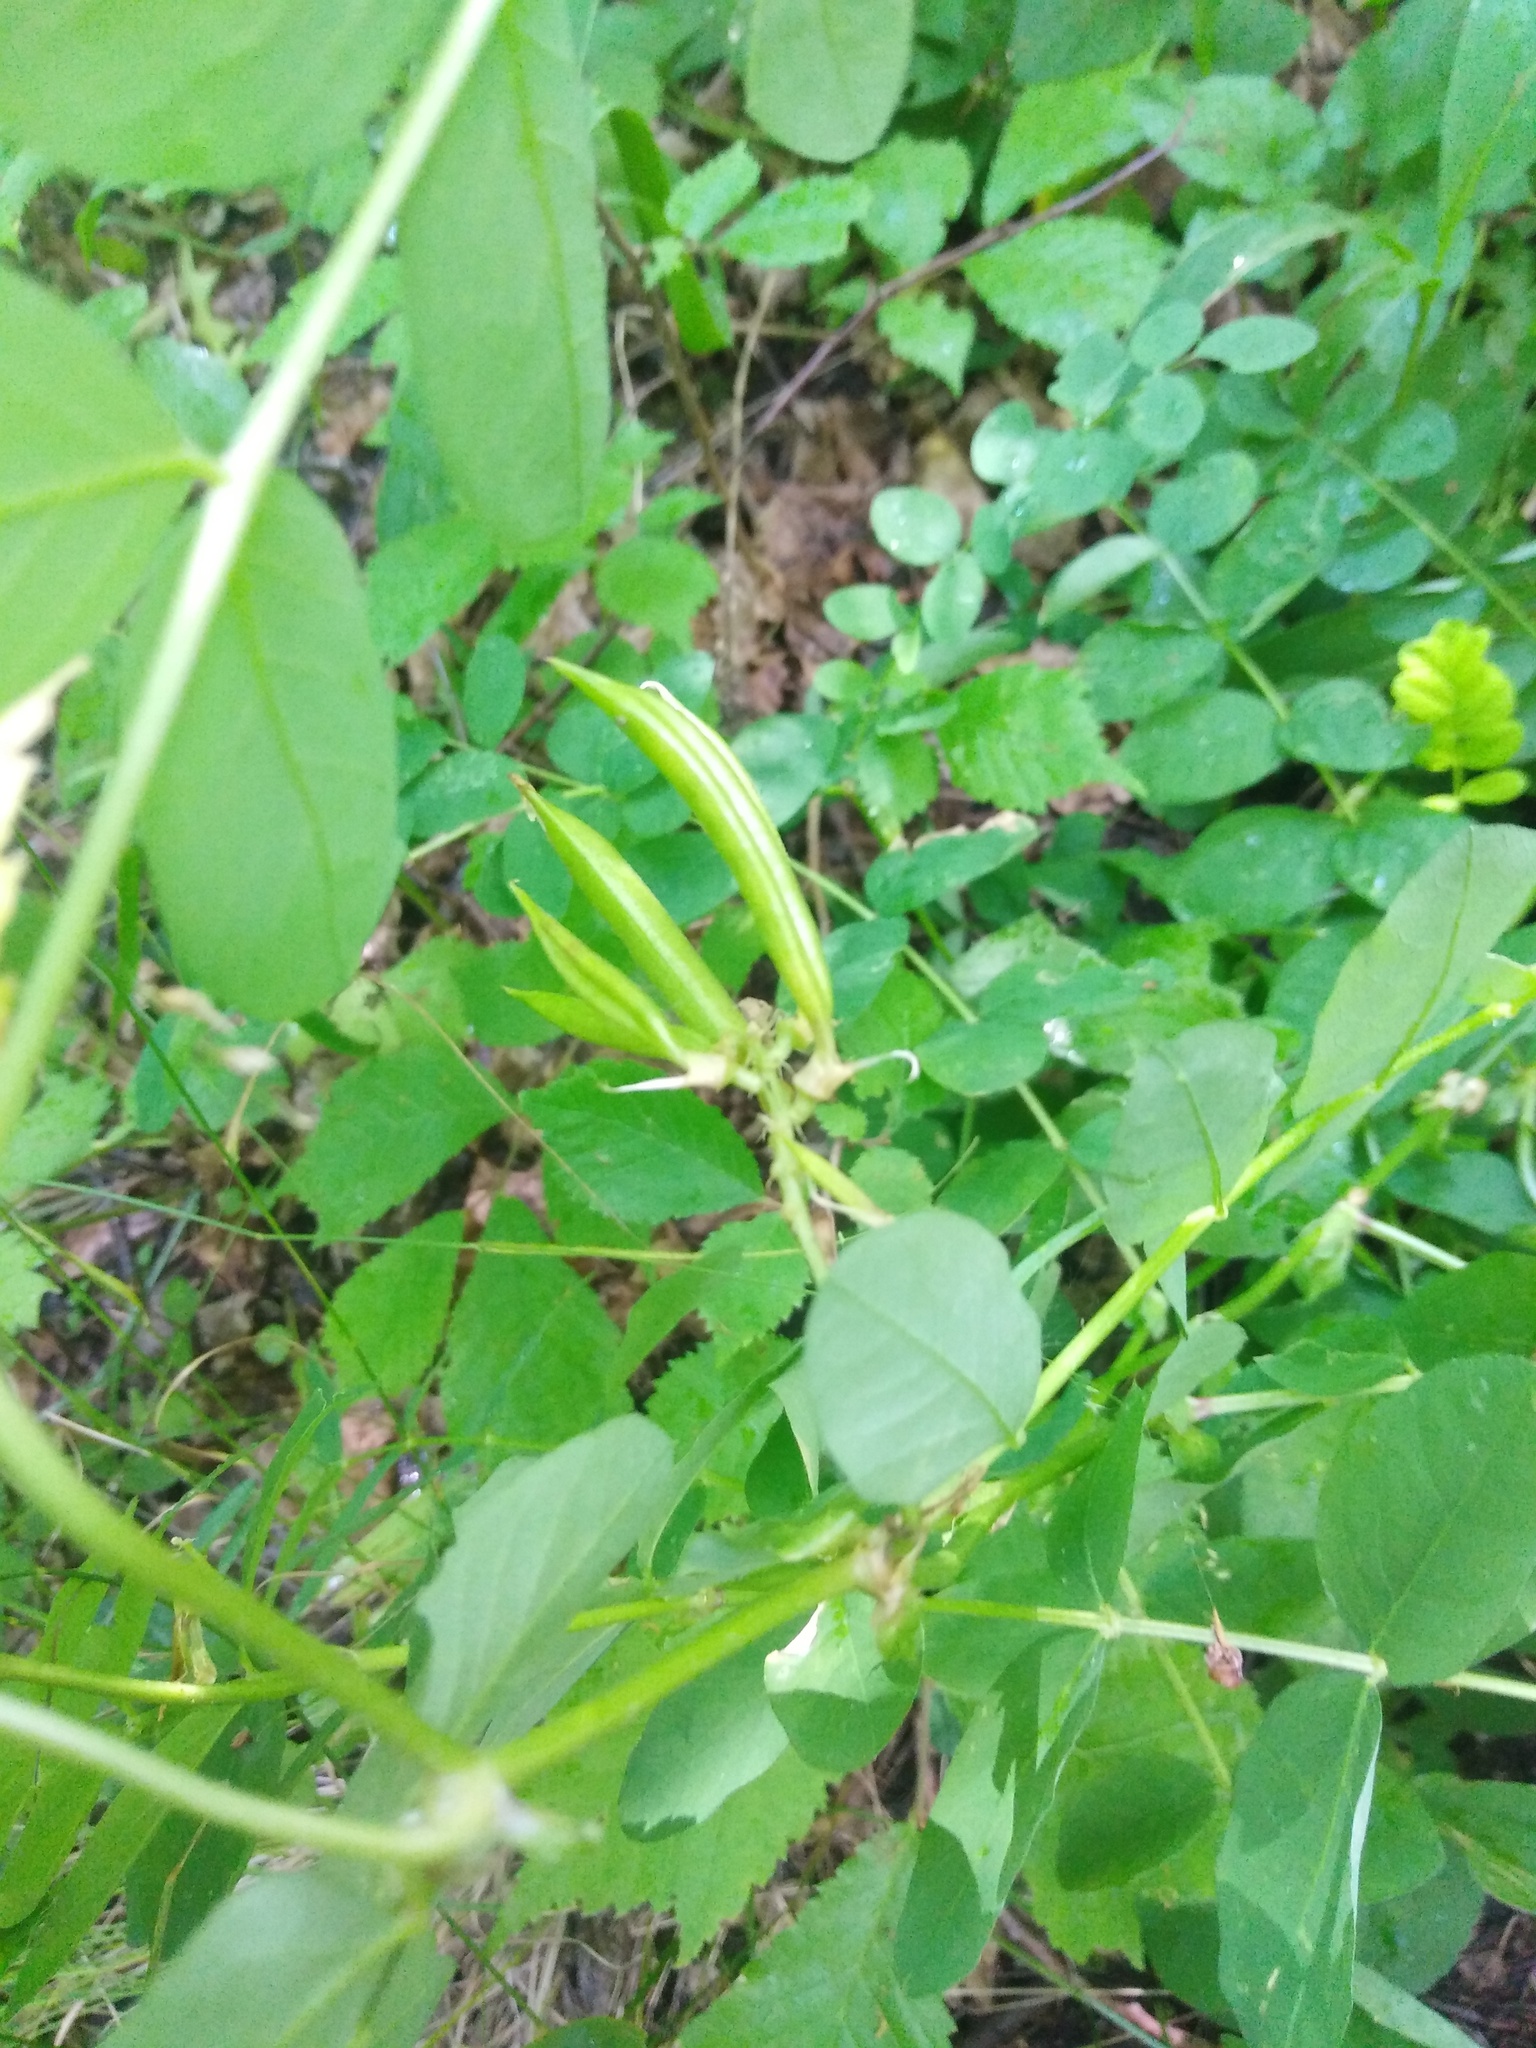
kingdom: Plantae
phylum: Tracheophyta
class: Magnoliopsida
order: Fabales
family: Fabaceae
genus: Astragalus
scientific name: Astragalus glycyphyllos
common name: Wild liquorice
